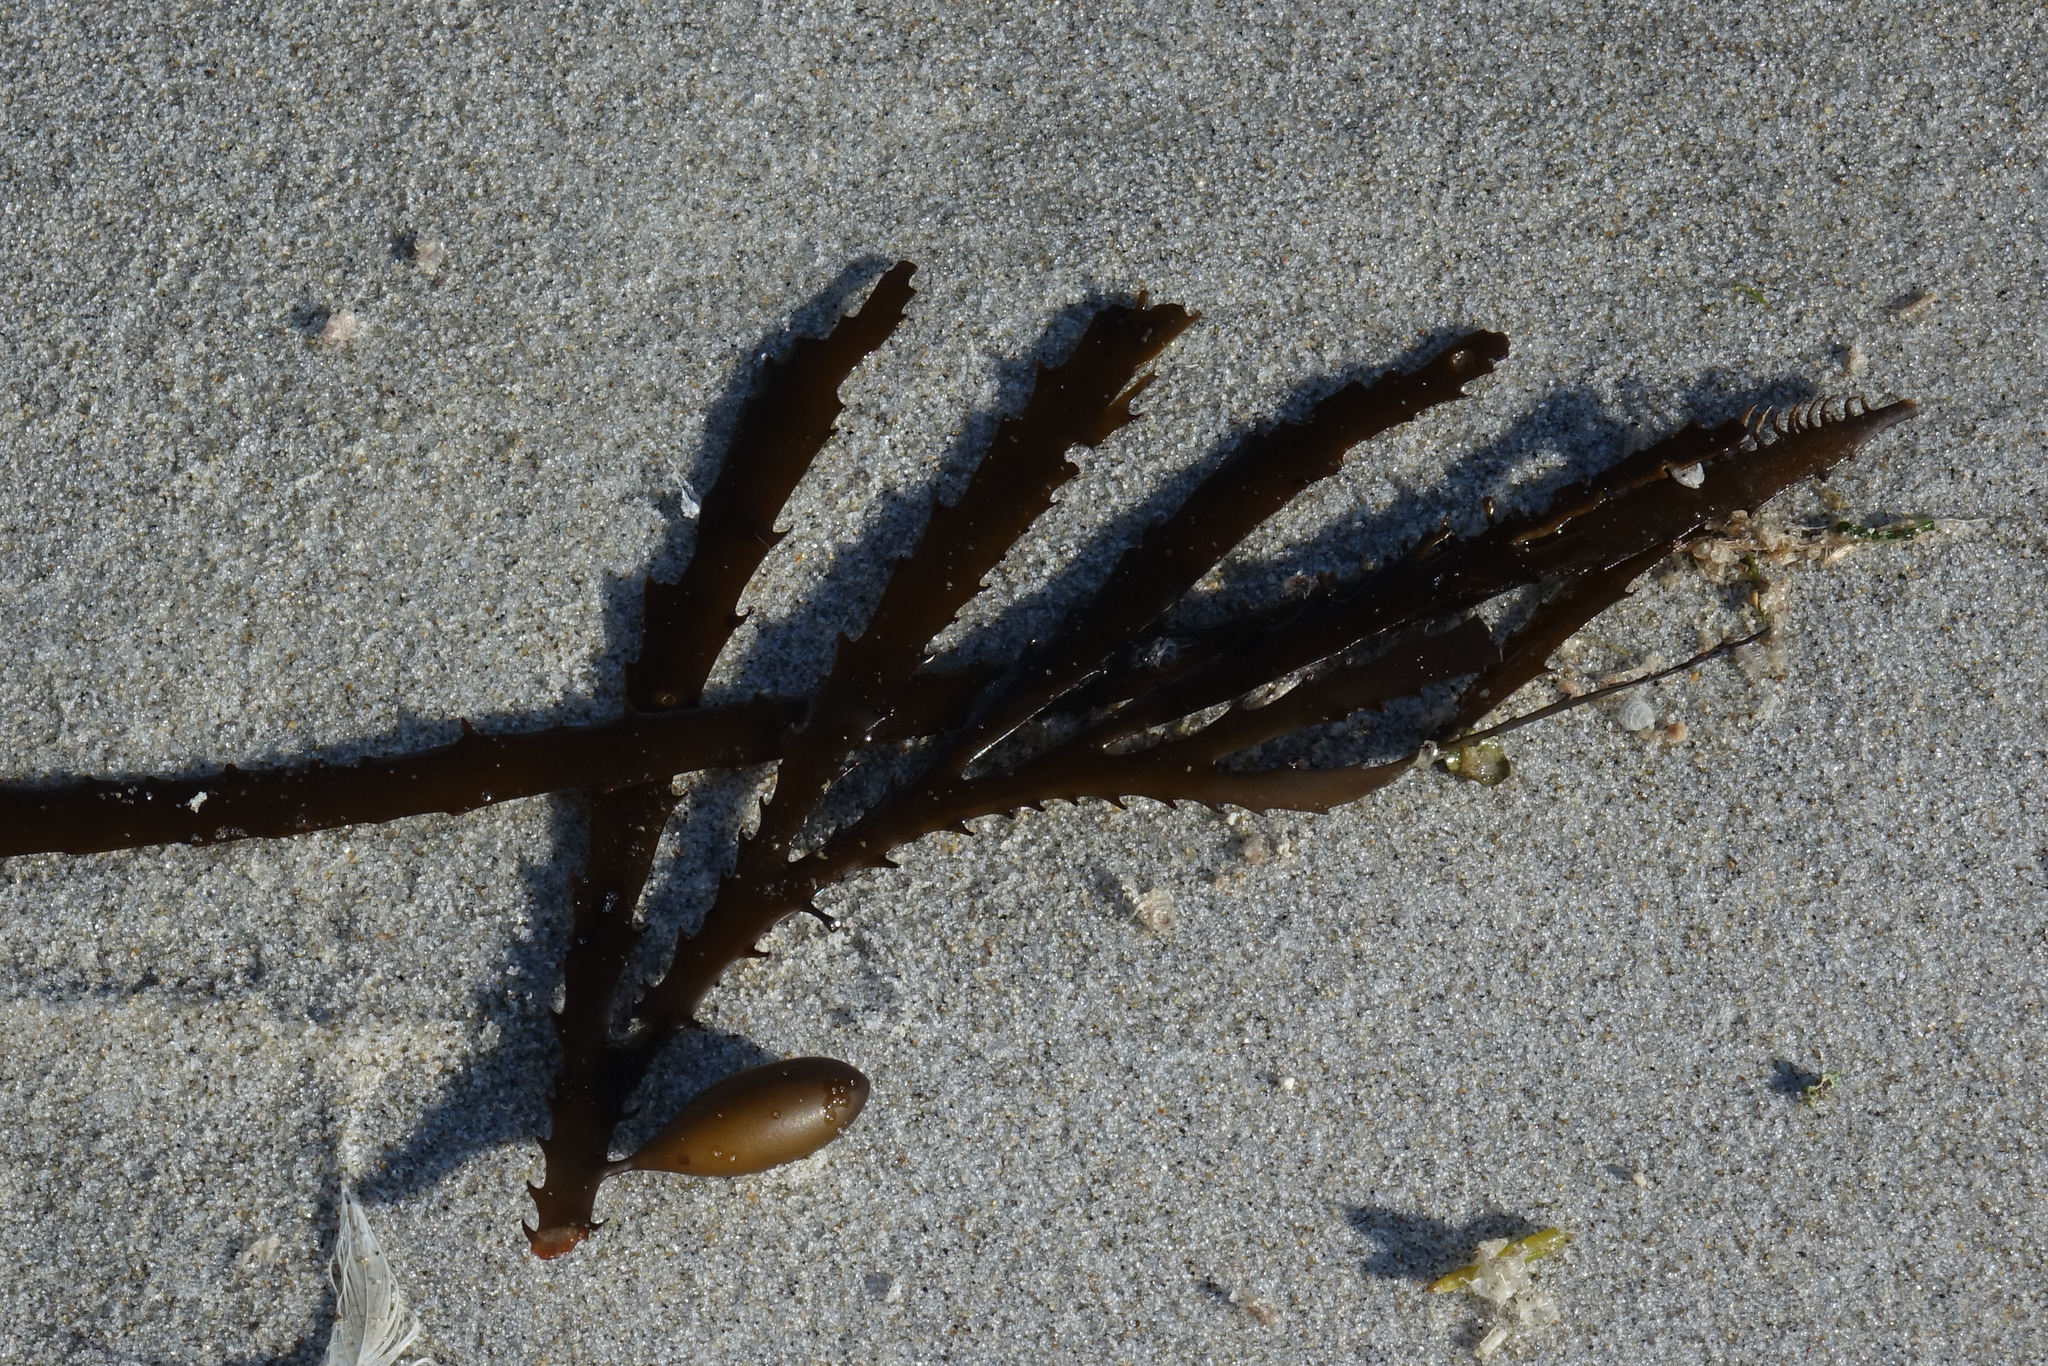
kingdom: Chromista
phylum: Ochrophyta
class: Phaeophyceae
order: Fucales
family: Seirococcaceae
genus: Marginariella
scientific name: Marginariella boryana
